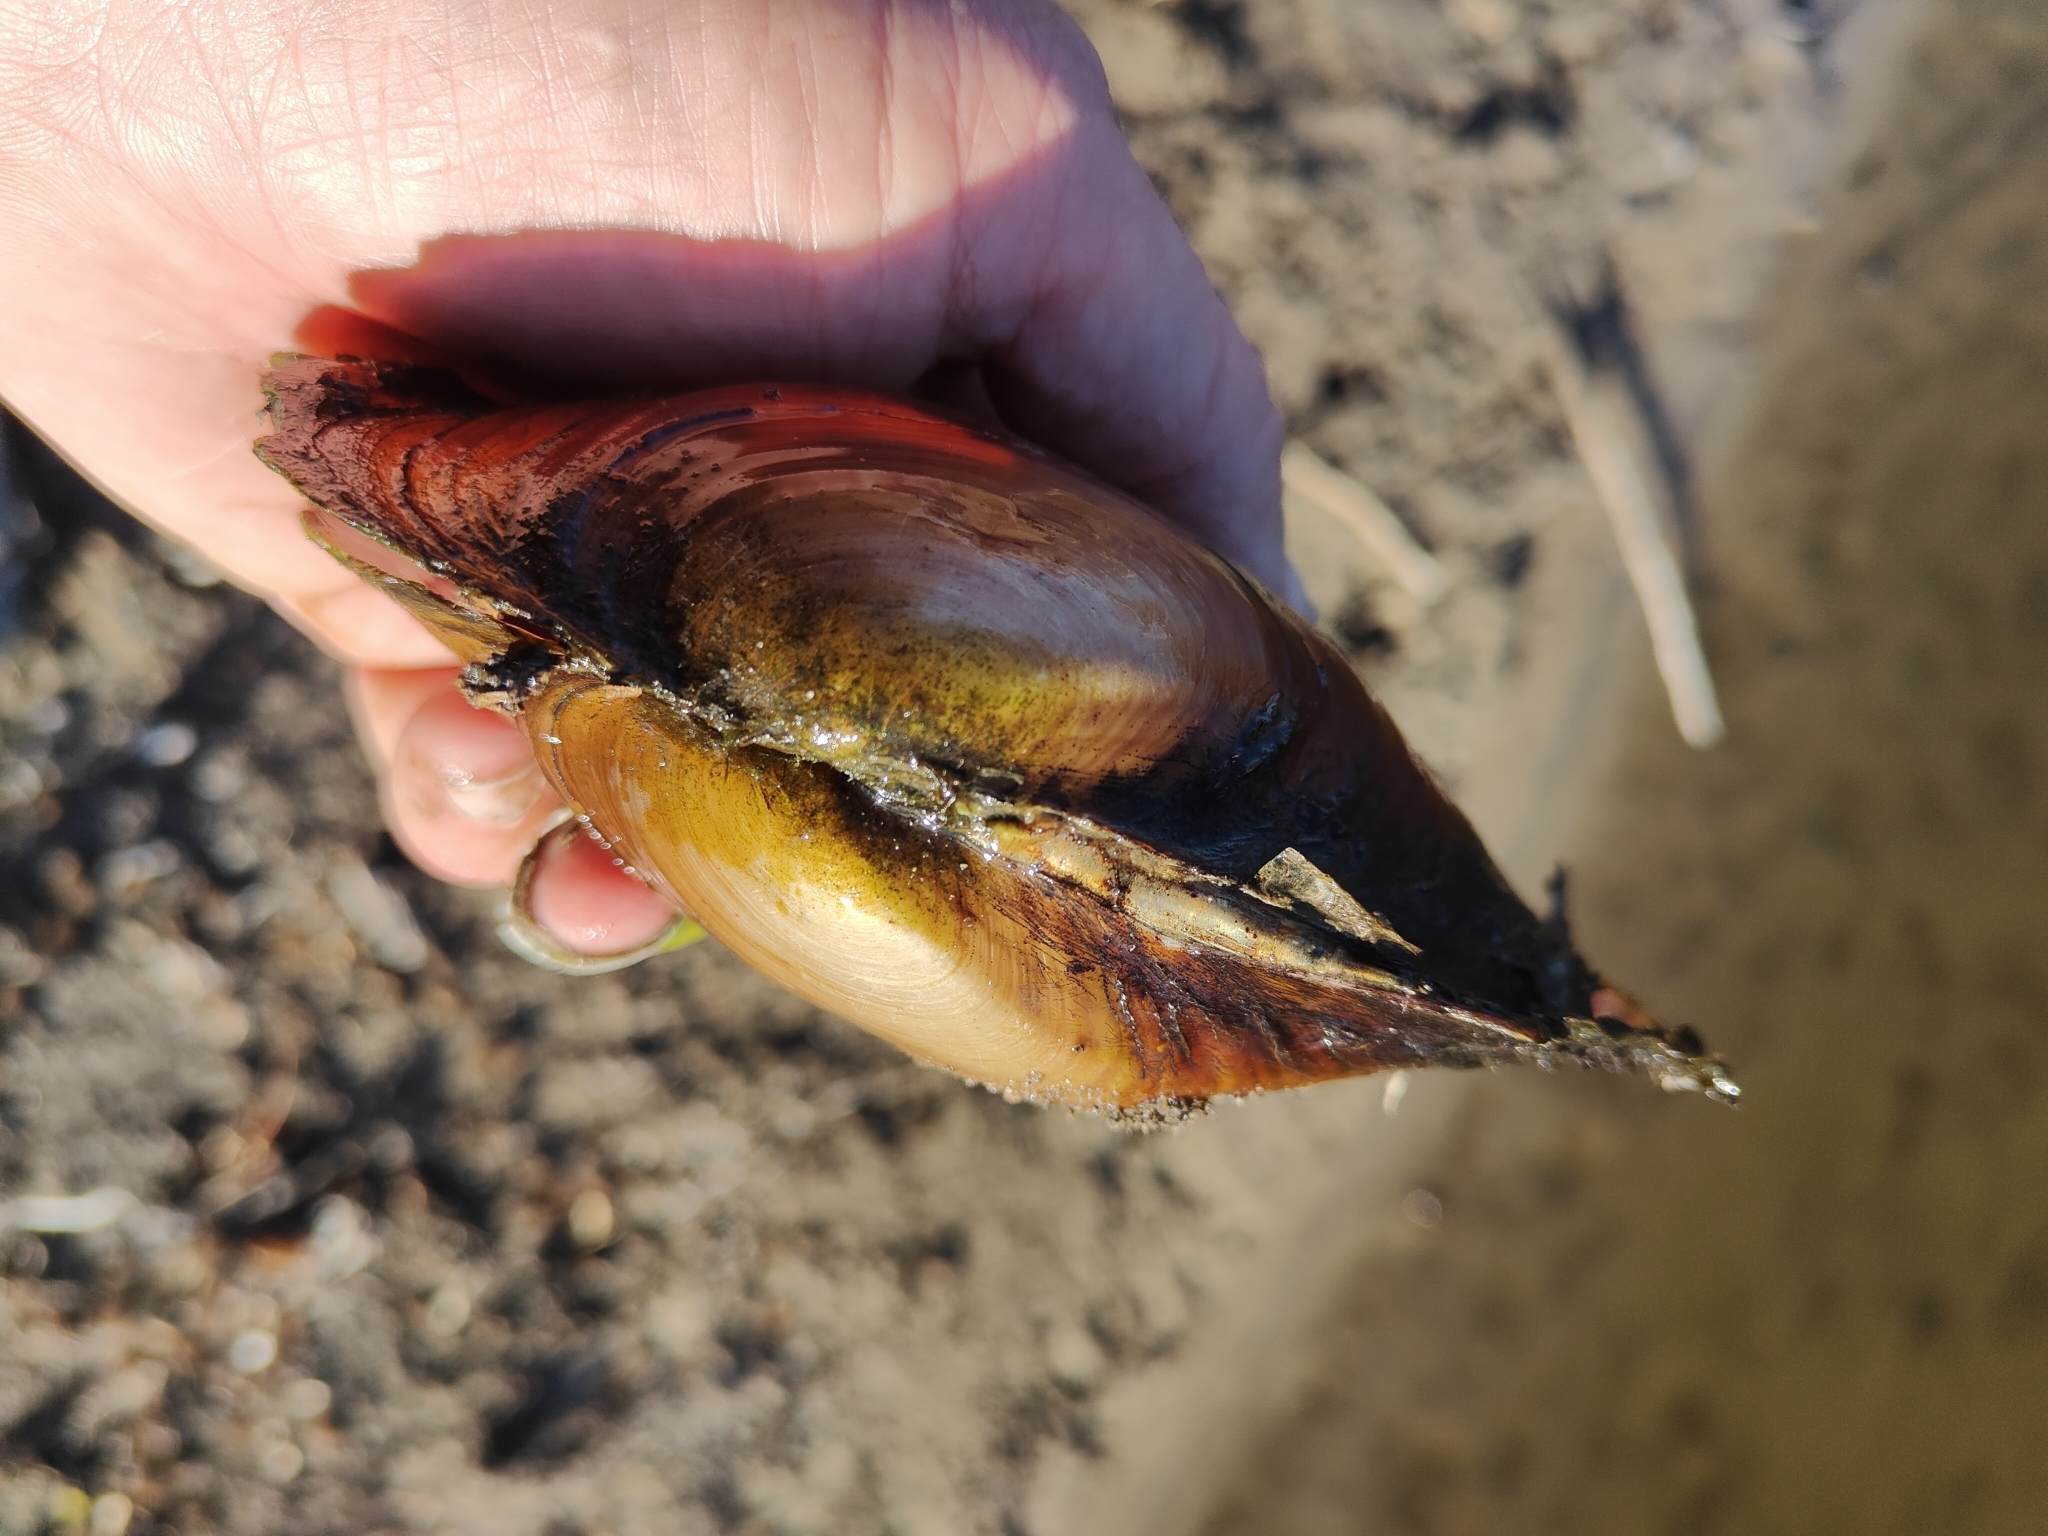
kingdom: Animalia
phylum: Mollusca
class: Bivalvia
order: Unionida
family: Unionidae
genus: Potamilus
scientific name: Potamilus ohiensis
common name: Pink papershell
